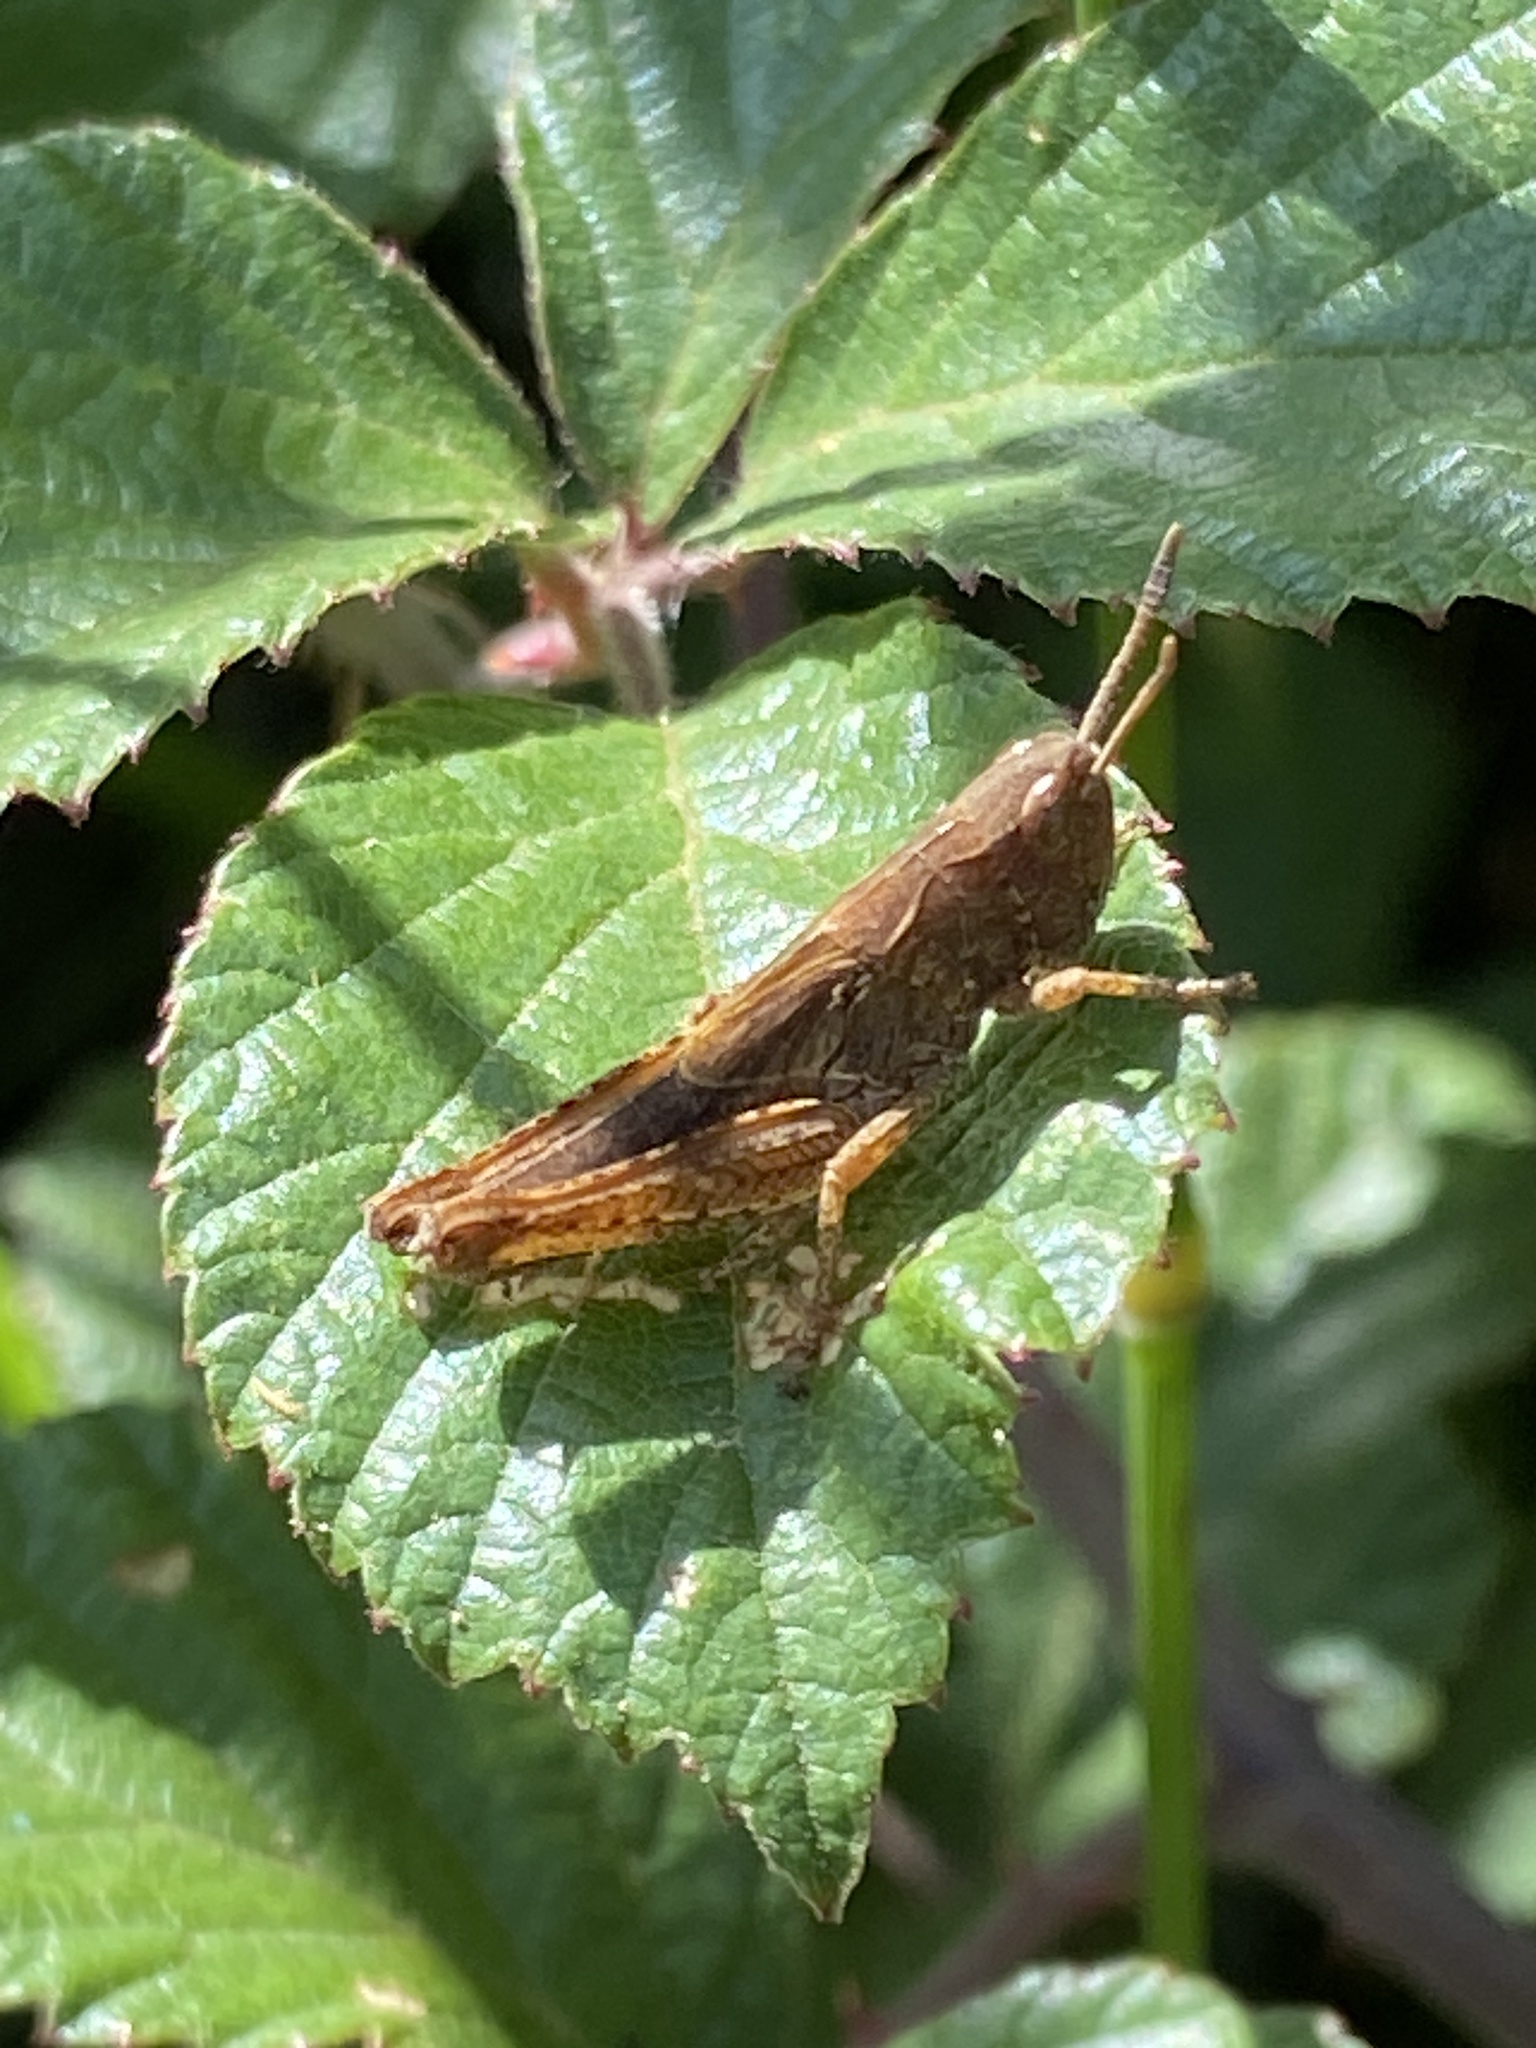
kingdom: Animalia
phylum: Arthropoda
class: Insecta
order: Orthoptera
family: Acrididae
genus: Chorthippus
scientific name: Chorthippus brunneus
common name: Field grasshopper
